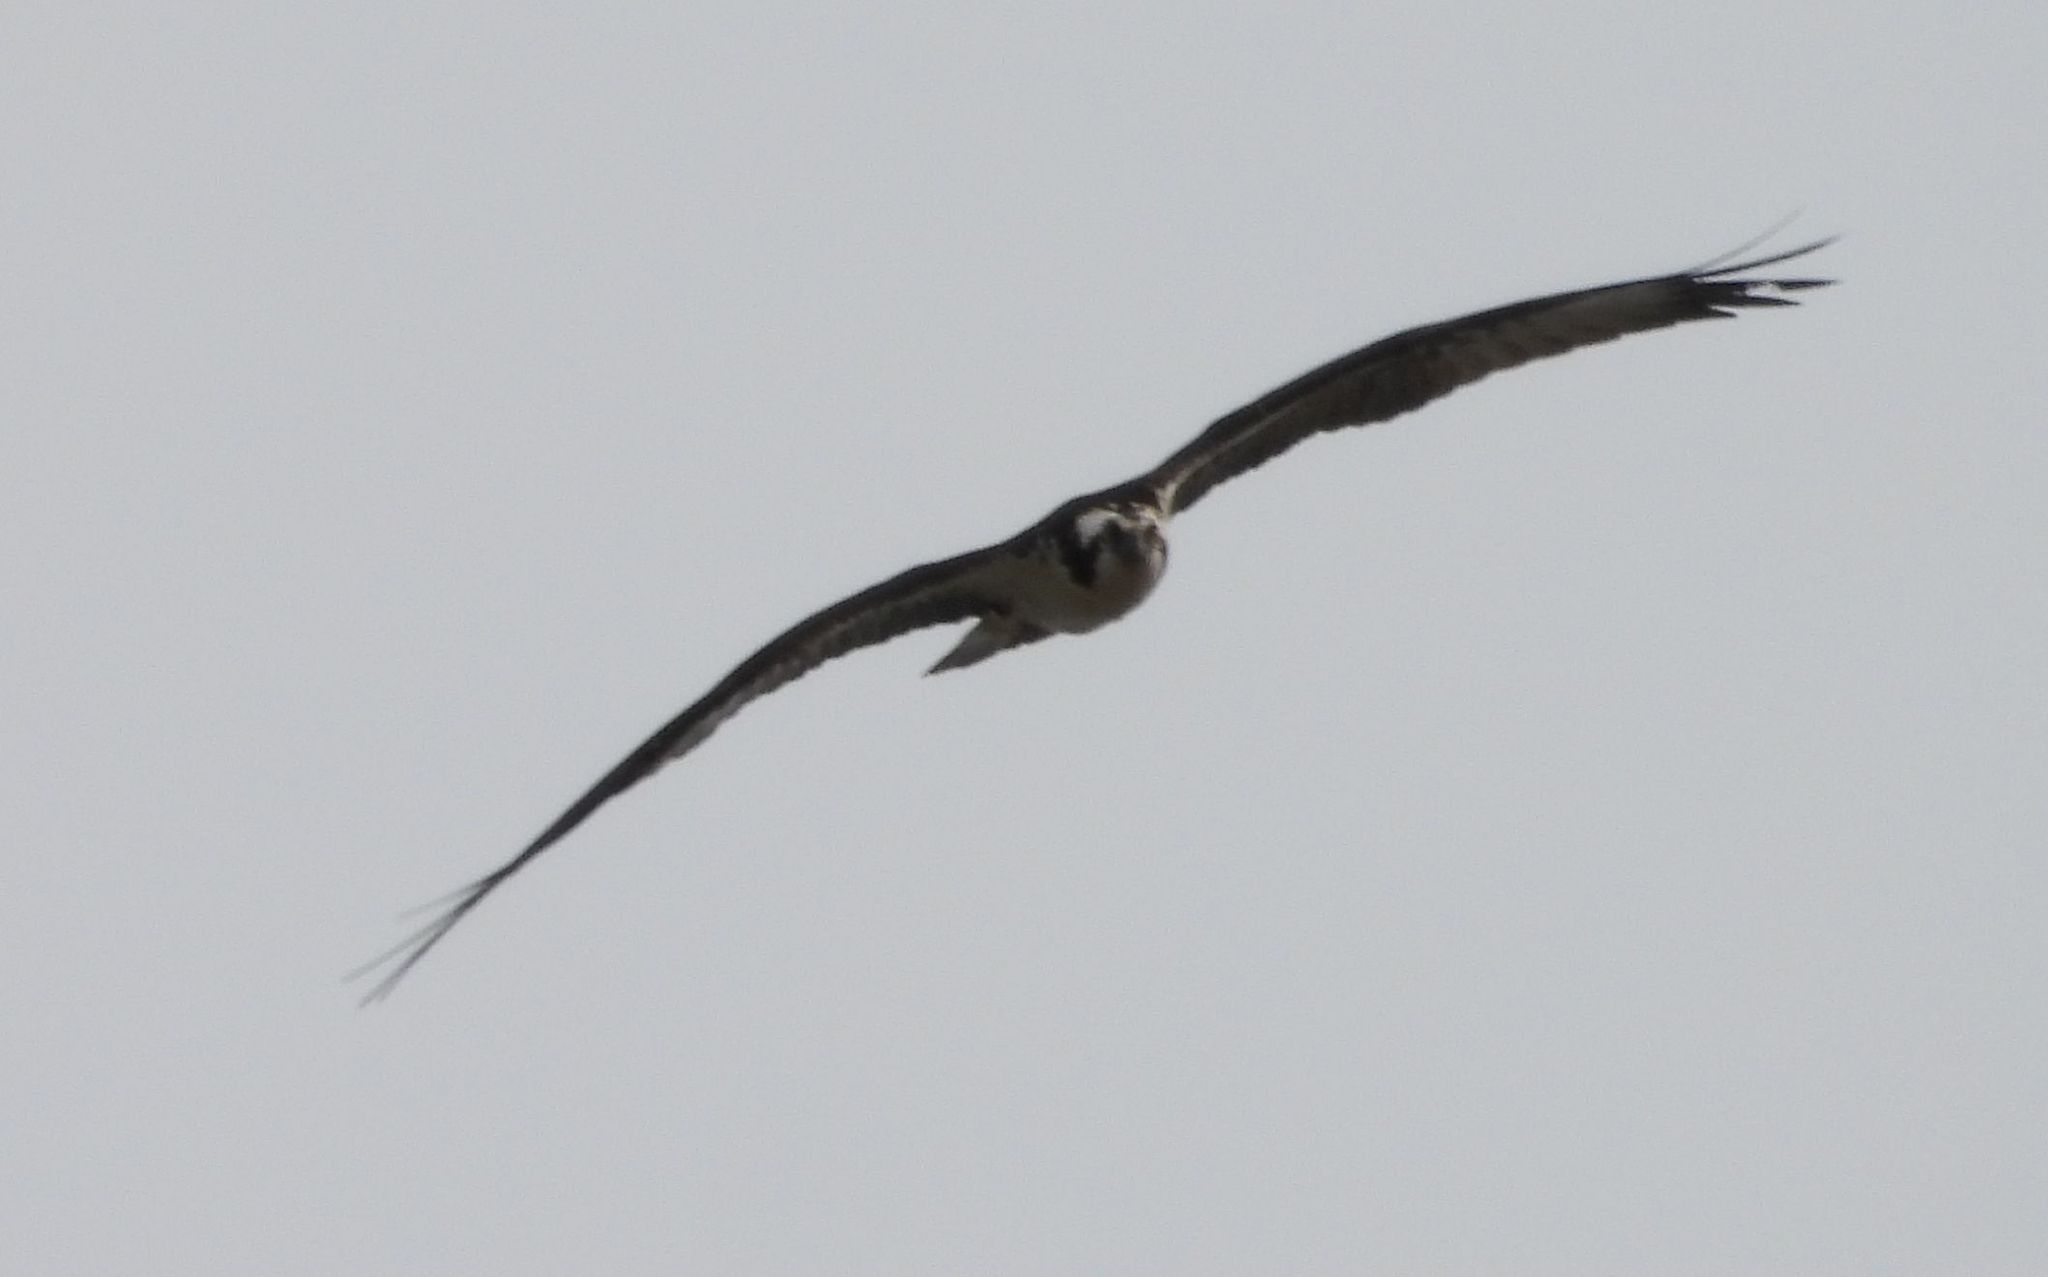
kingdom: Animalia
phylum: Chordata
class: Aves
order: Accipitriformes
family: Pandionidae
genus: Pandion
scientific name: Pandion haliaetus
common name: Osprey
